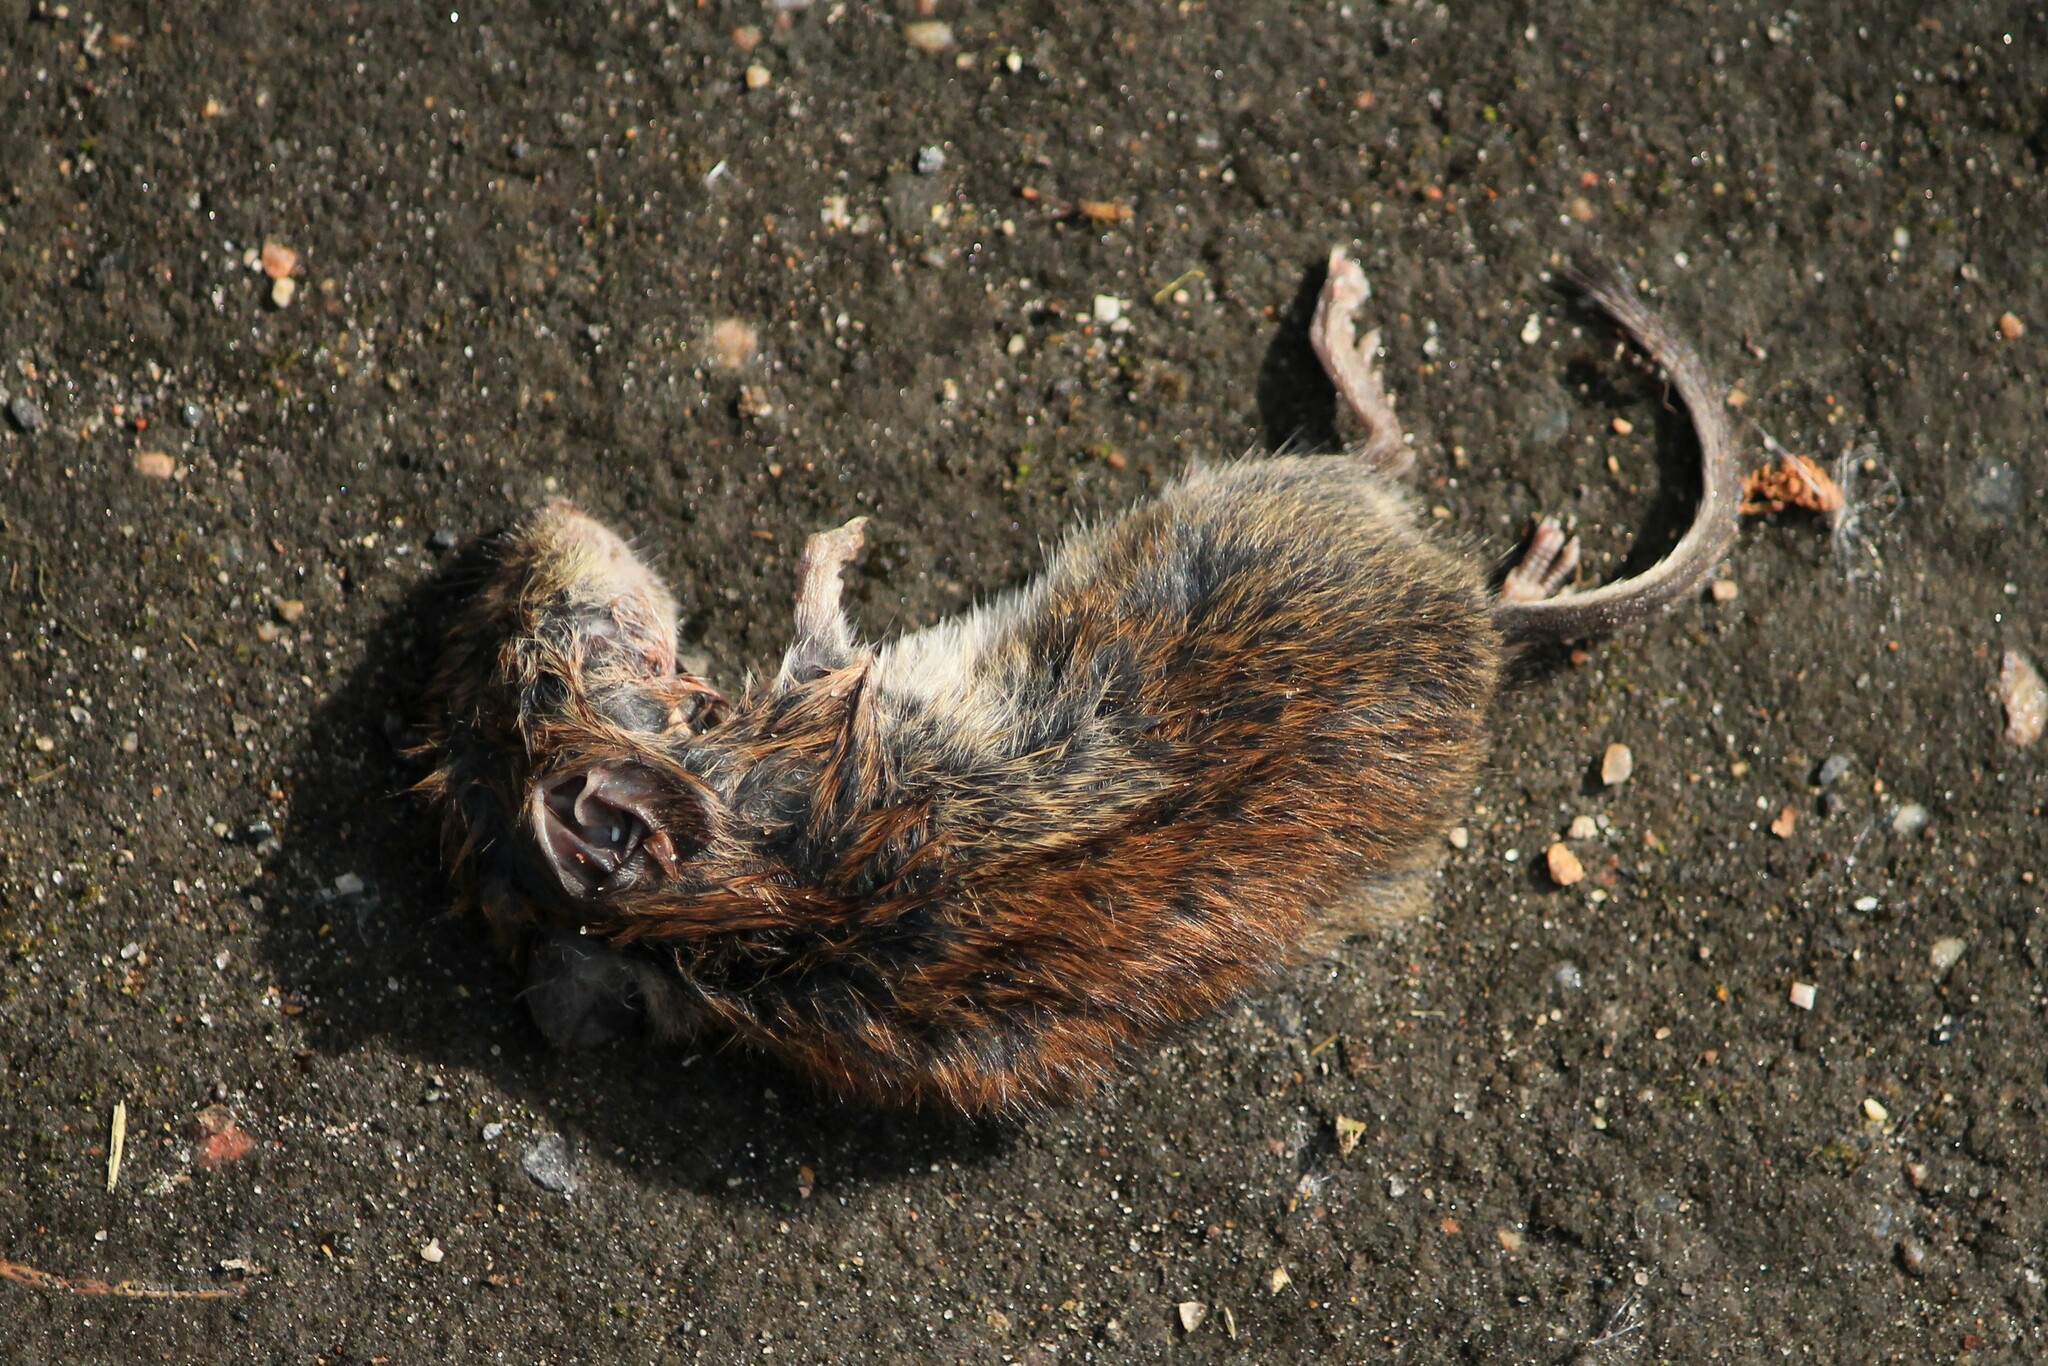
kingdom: Animalia
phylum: Chordata
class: Mammalia
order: Rodentia
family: Cricetidae
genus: Myodes
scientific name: Myodes glareolus
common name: Bank vole
